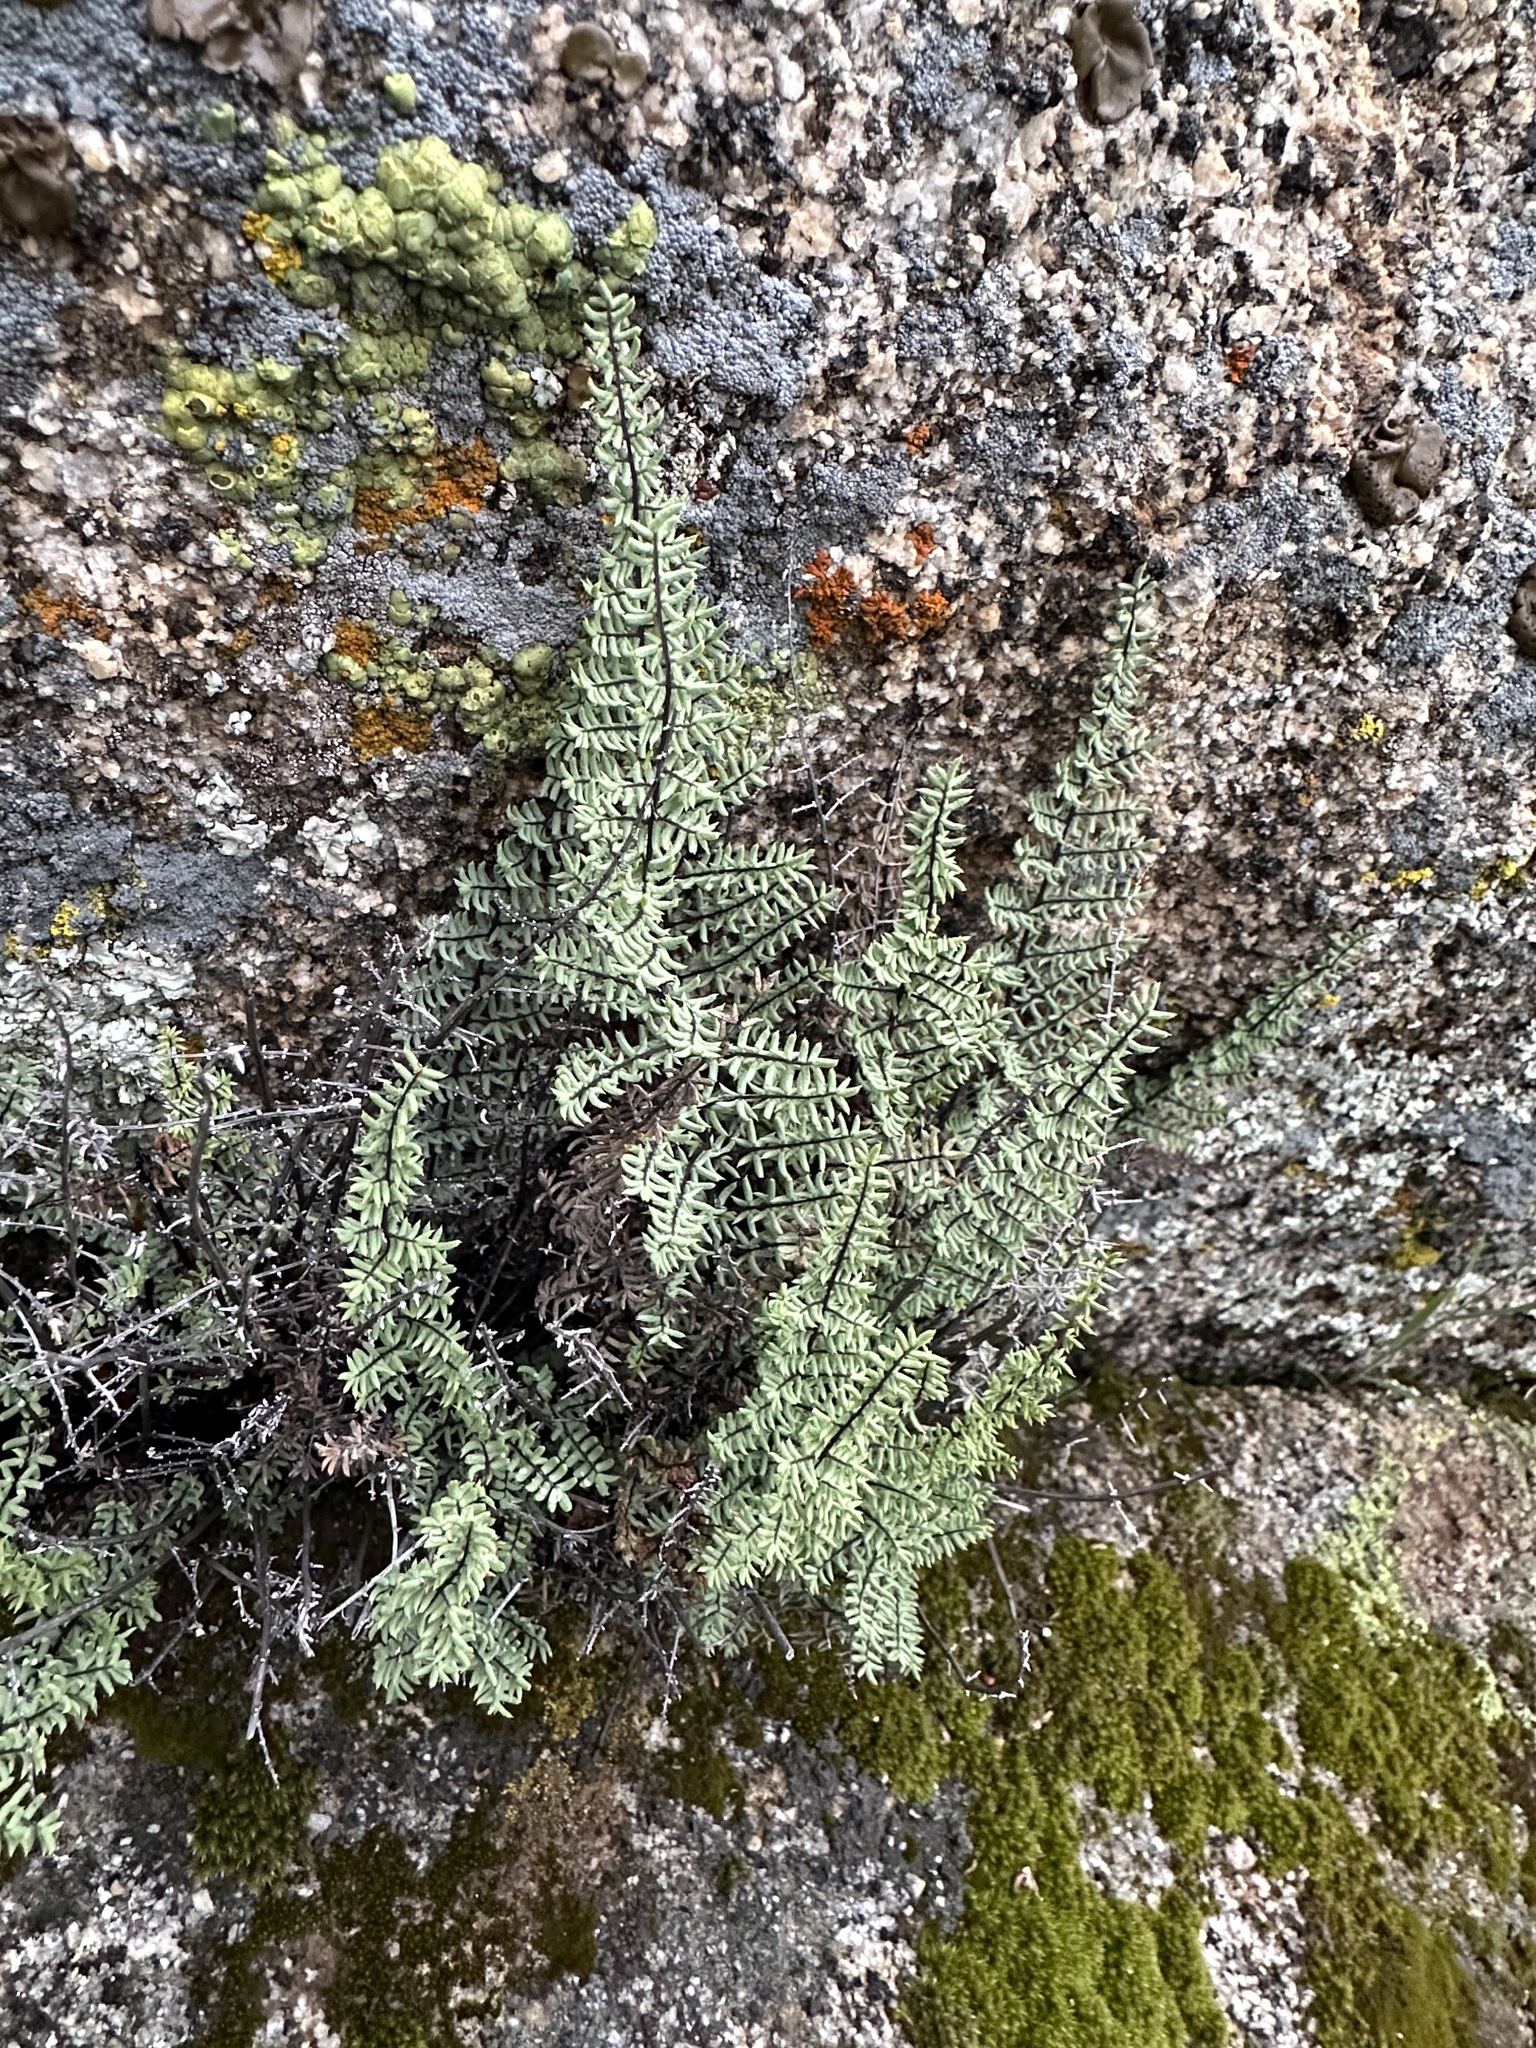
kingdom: Plantae
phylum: Tracheophyta
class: Polypodiopsida
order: Polypodiales
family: Pteridaceae
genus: Pellaea
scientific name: Pellaea mucronata
